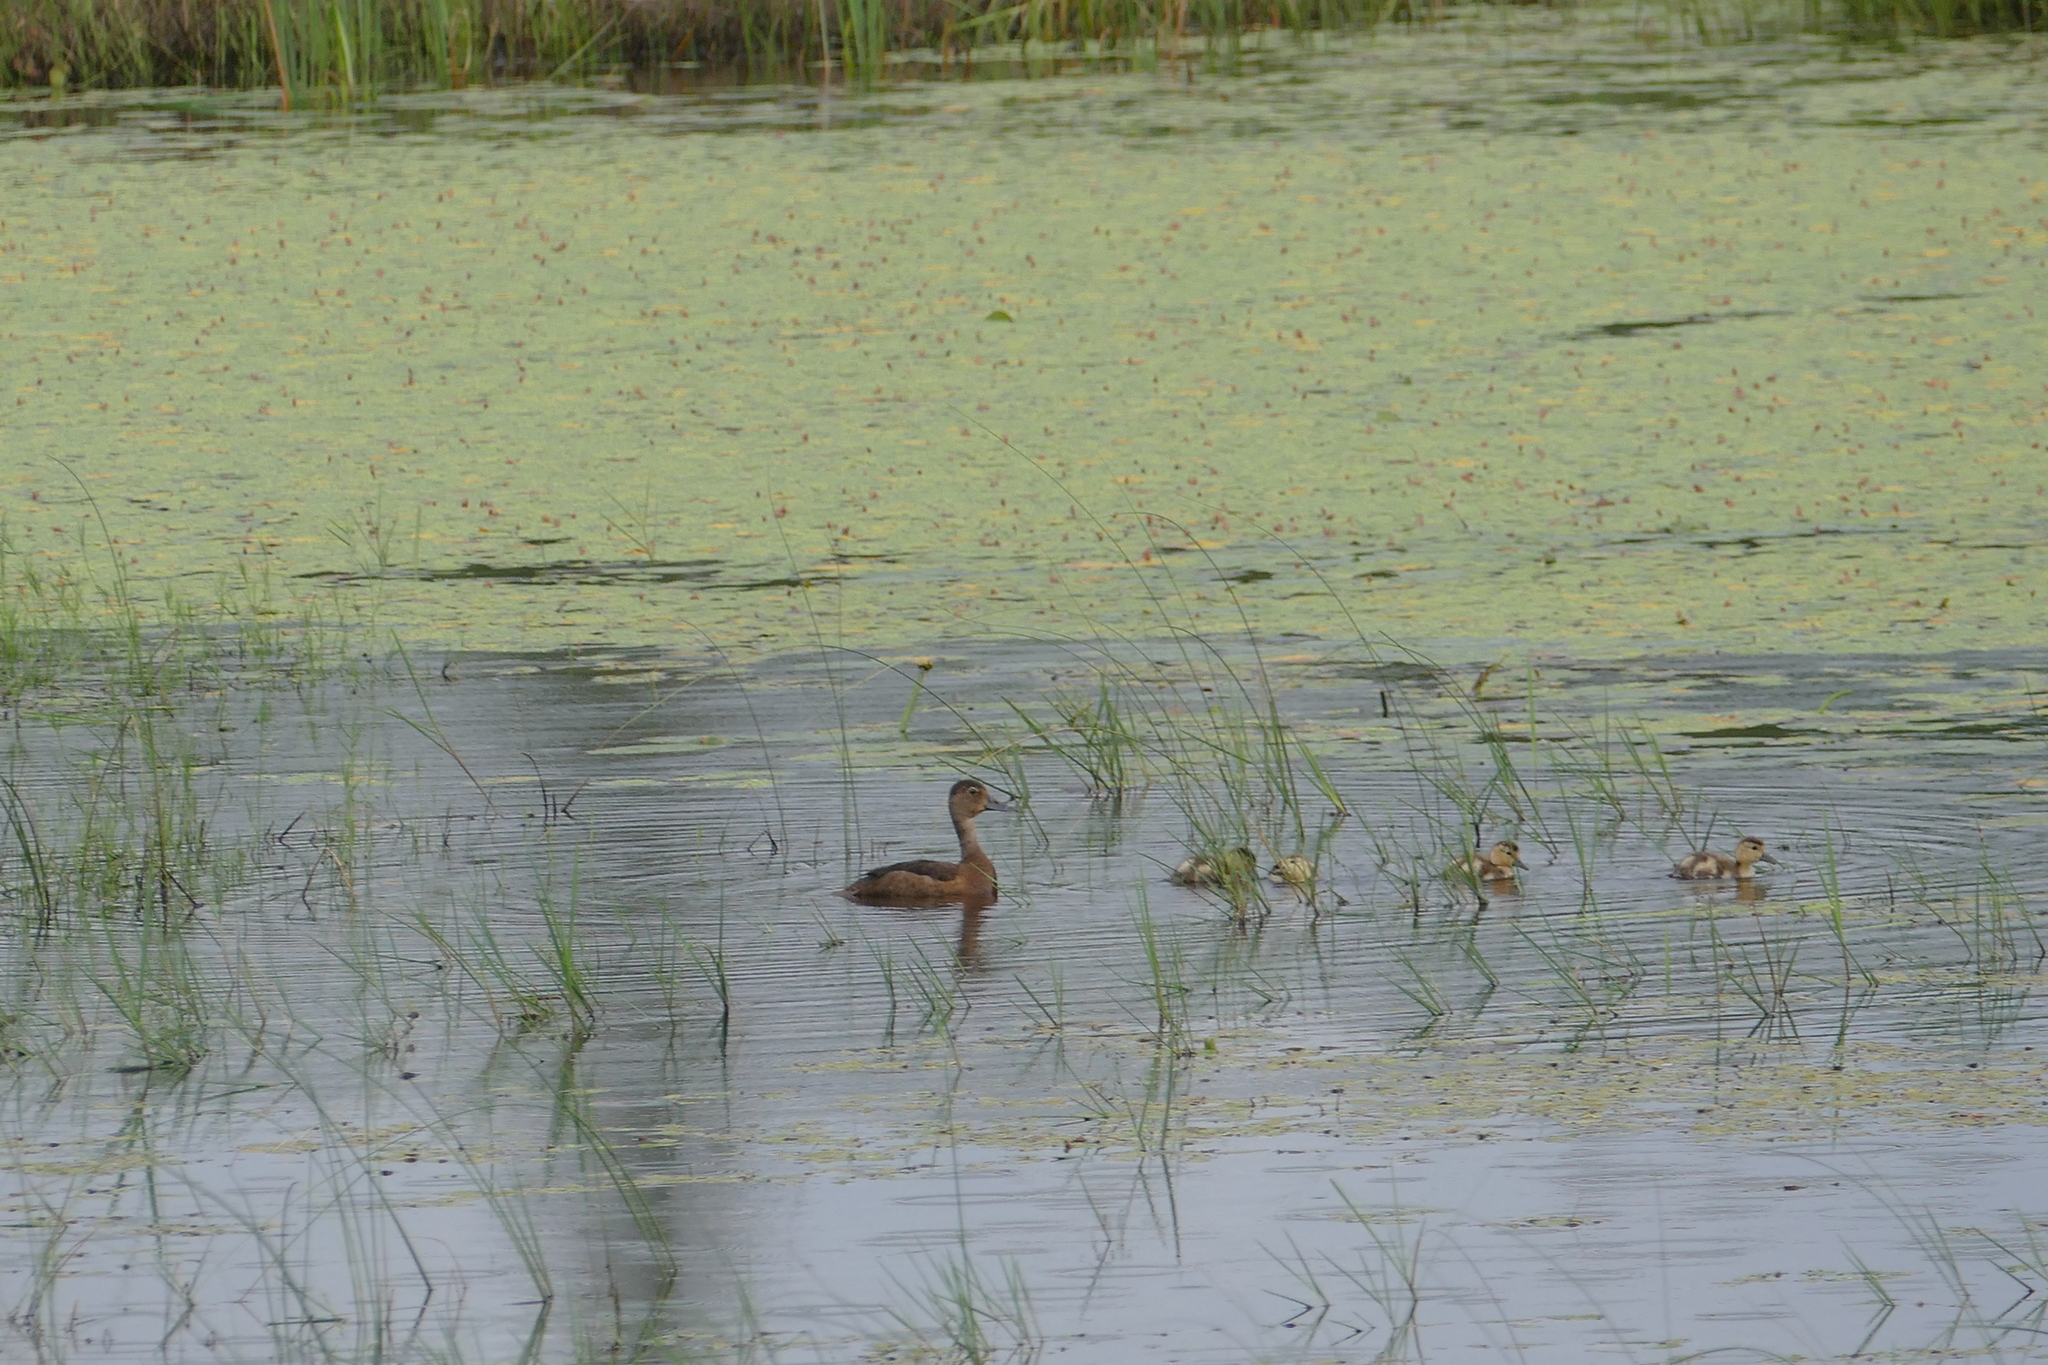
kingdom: Animalia
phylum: Chordata
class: Aves
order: Anseriformes
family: Anatidae
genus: Aythya
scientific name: Aythya collaris
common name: Ring-necked duck
